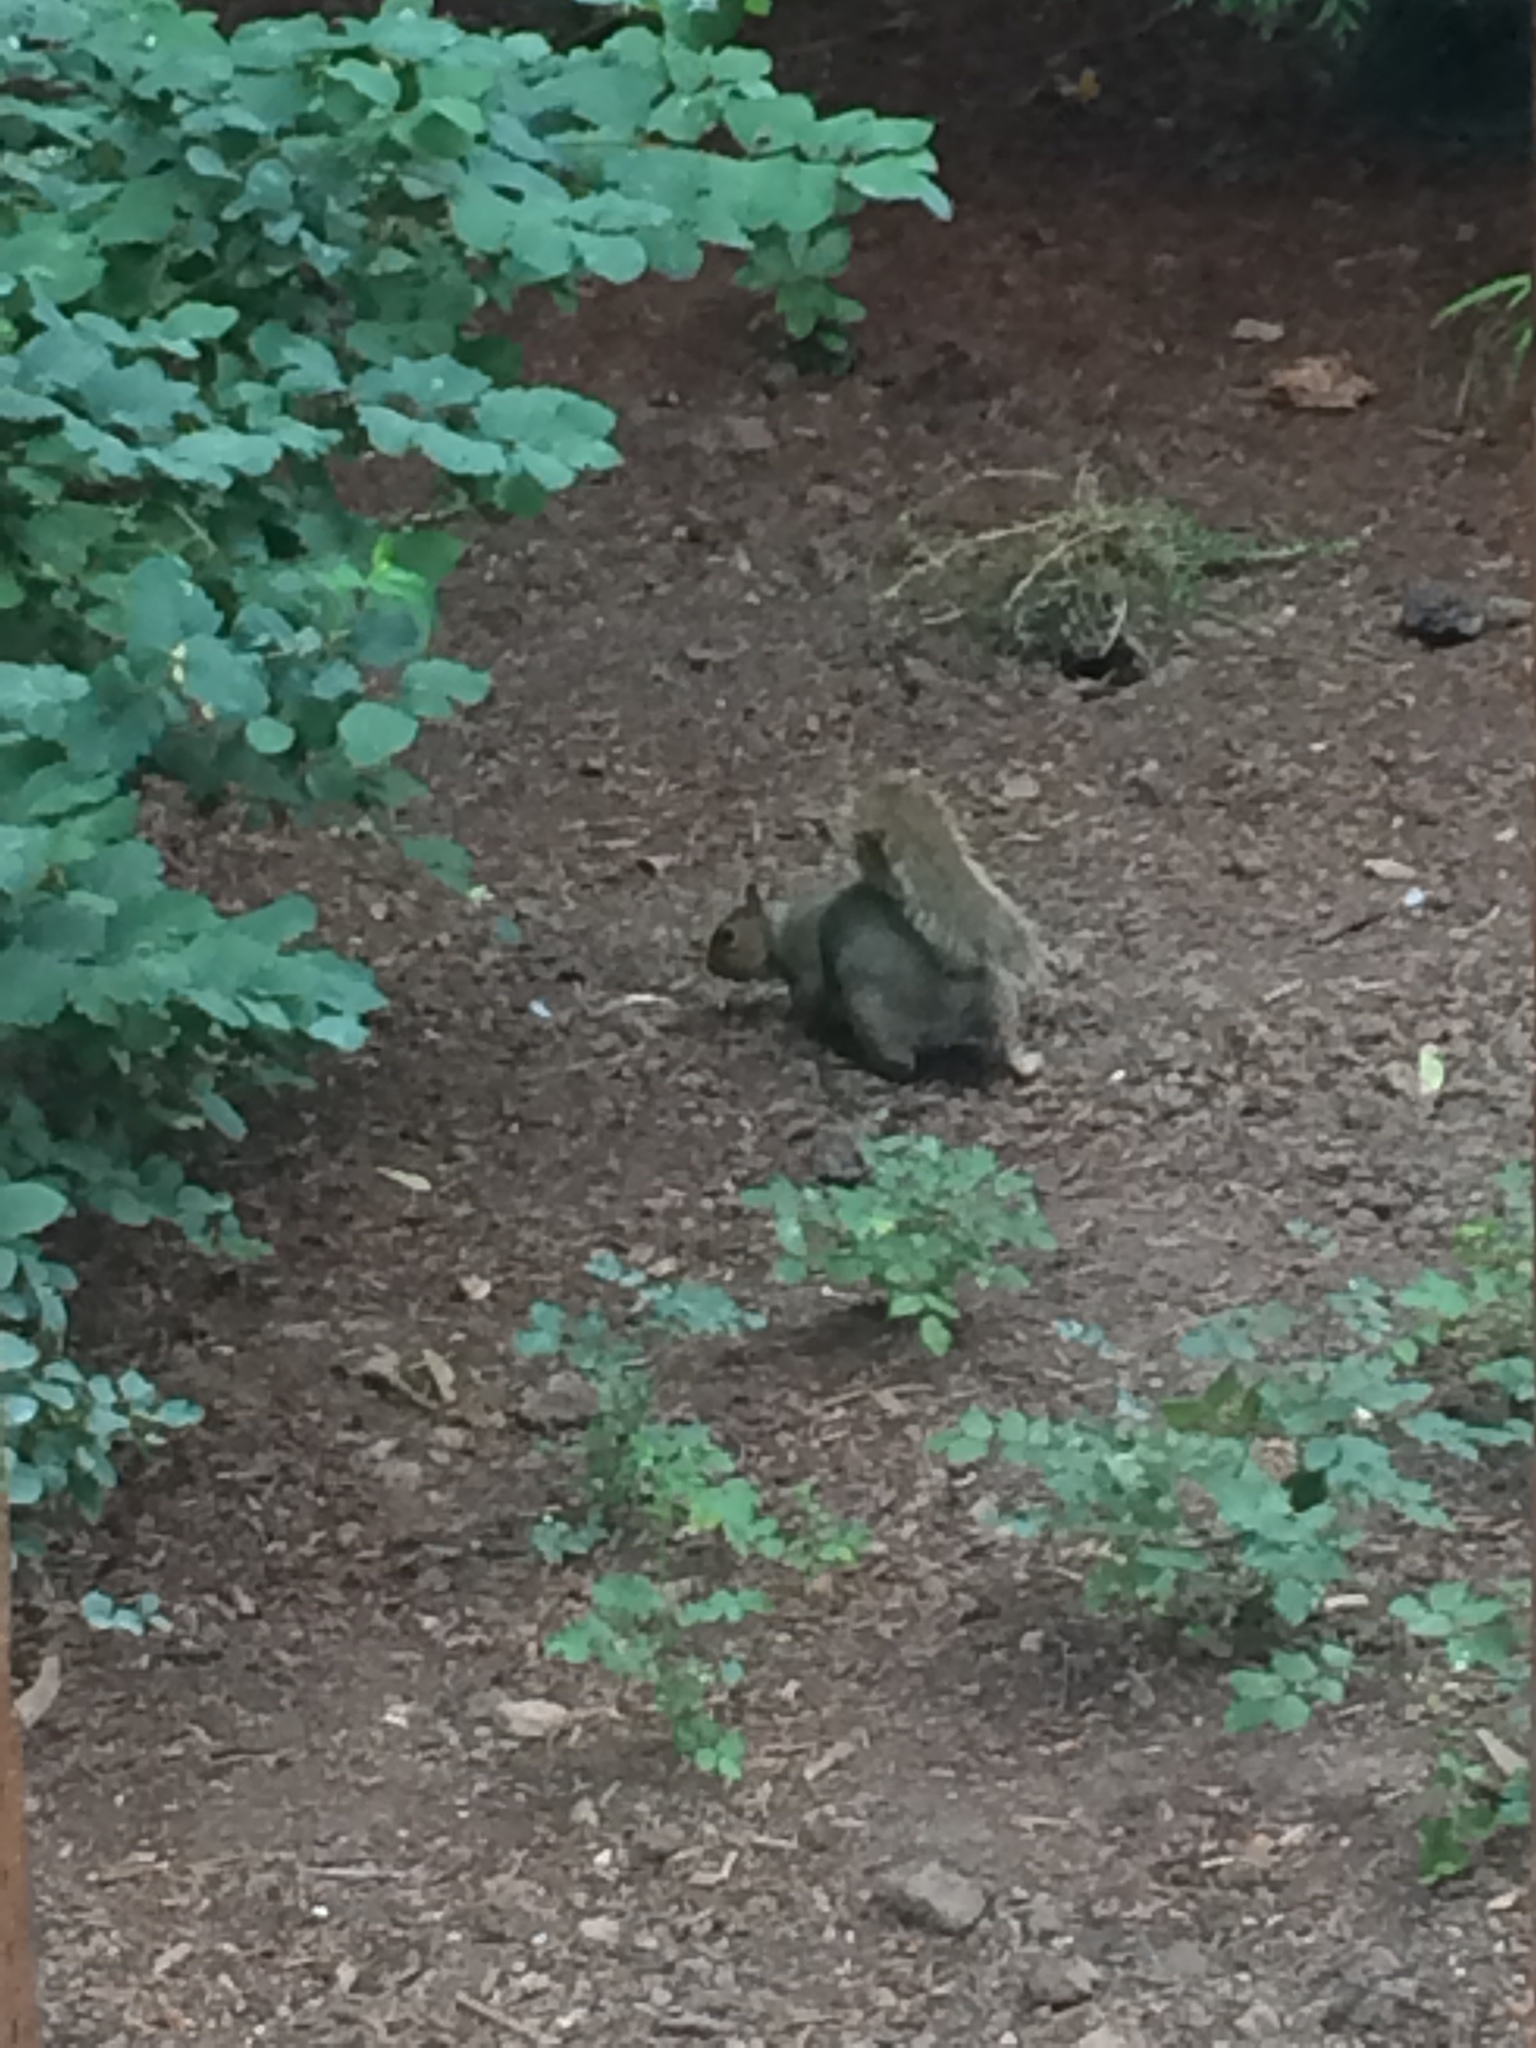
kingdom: Animalia
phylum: Chordata
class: Mammalia
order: Rodentia
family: Sciuridae
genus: Sciurus
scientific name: Sciurus carolinensis
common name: Eastern gray squirrel
